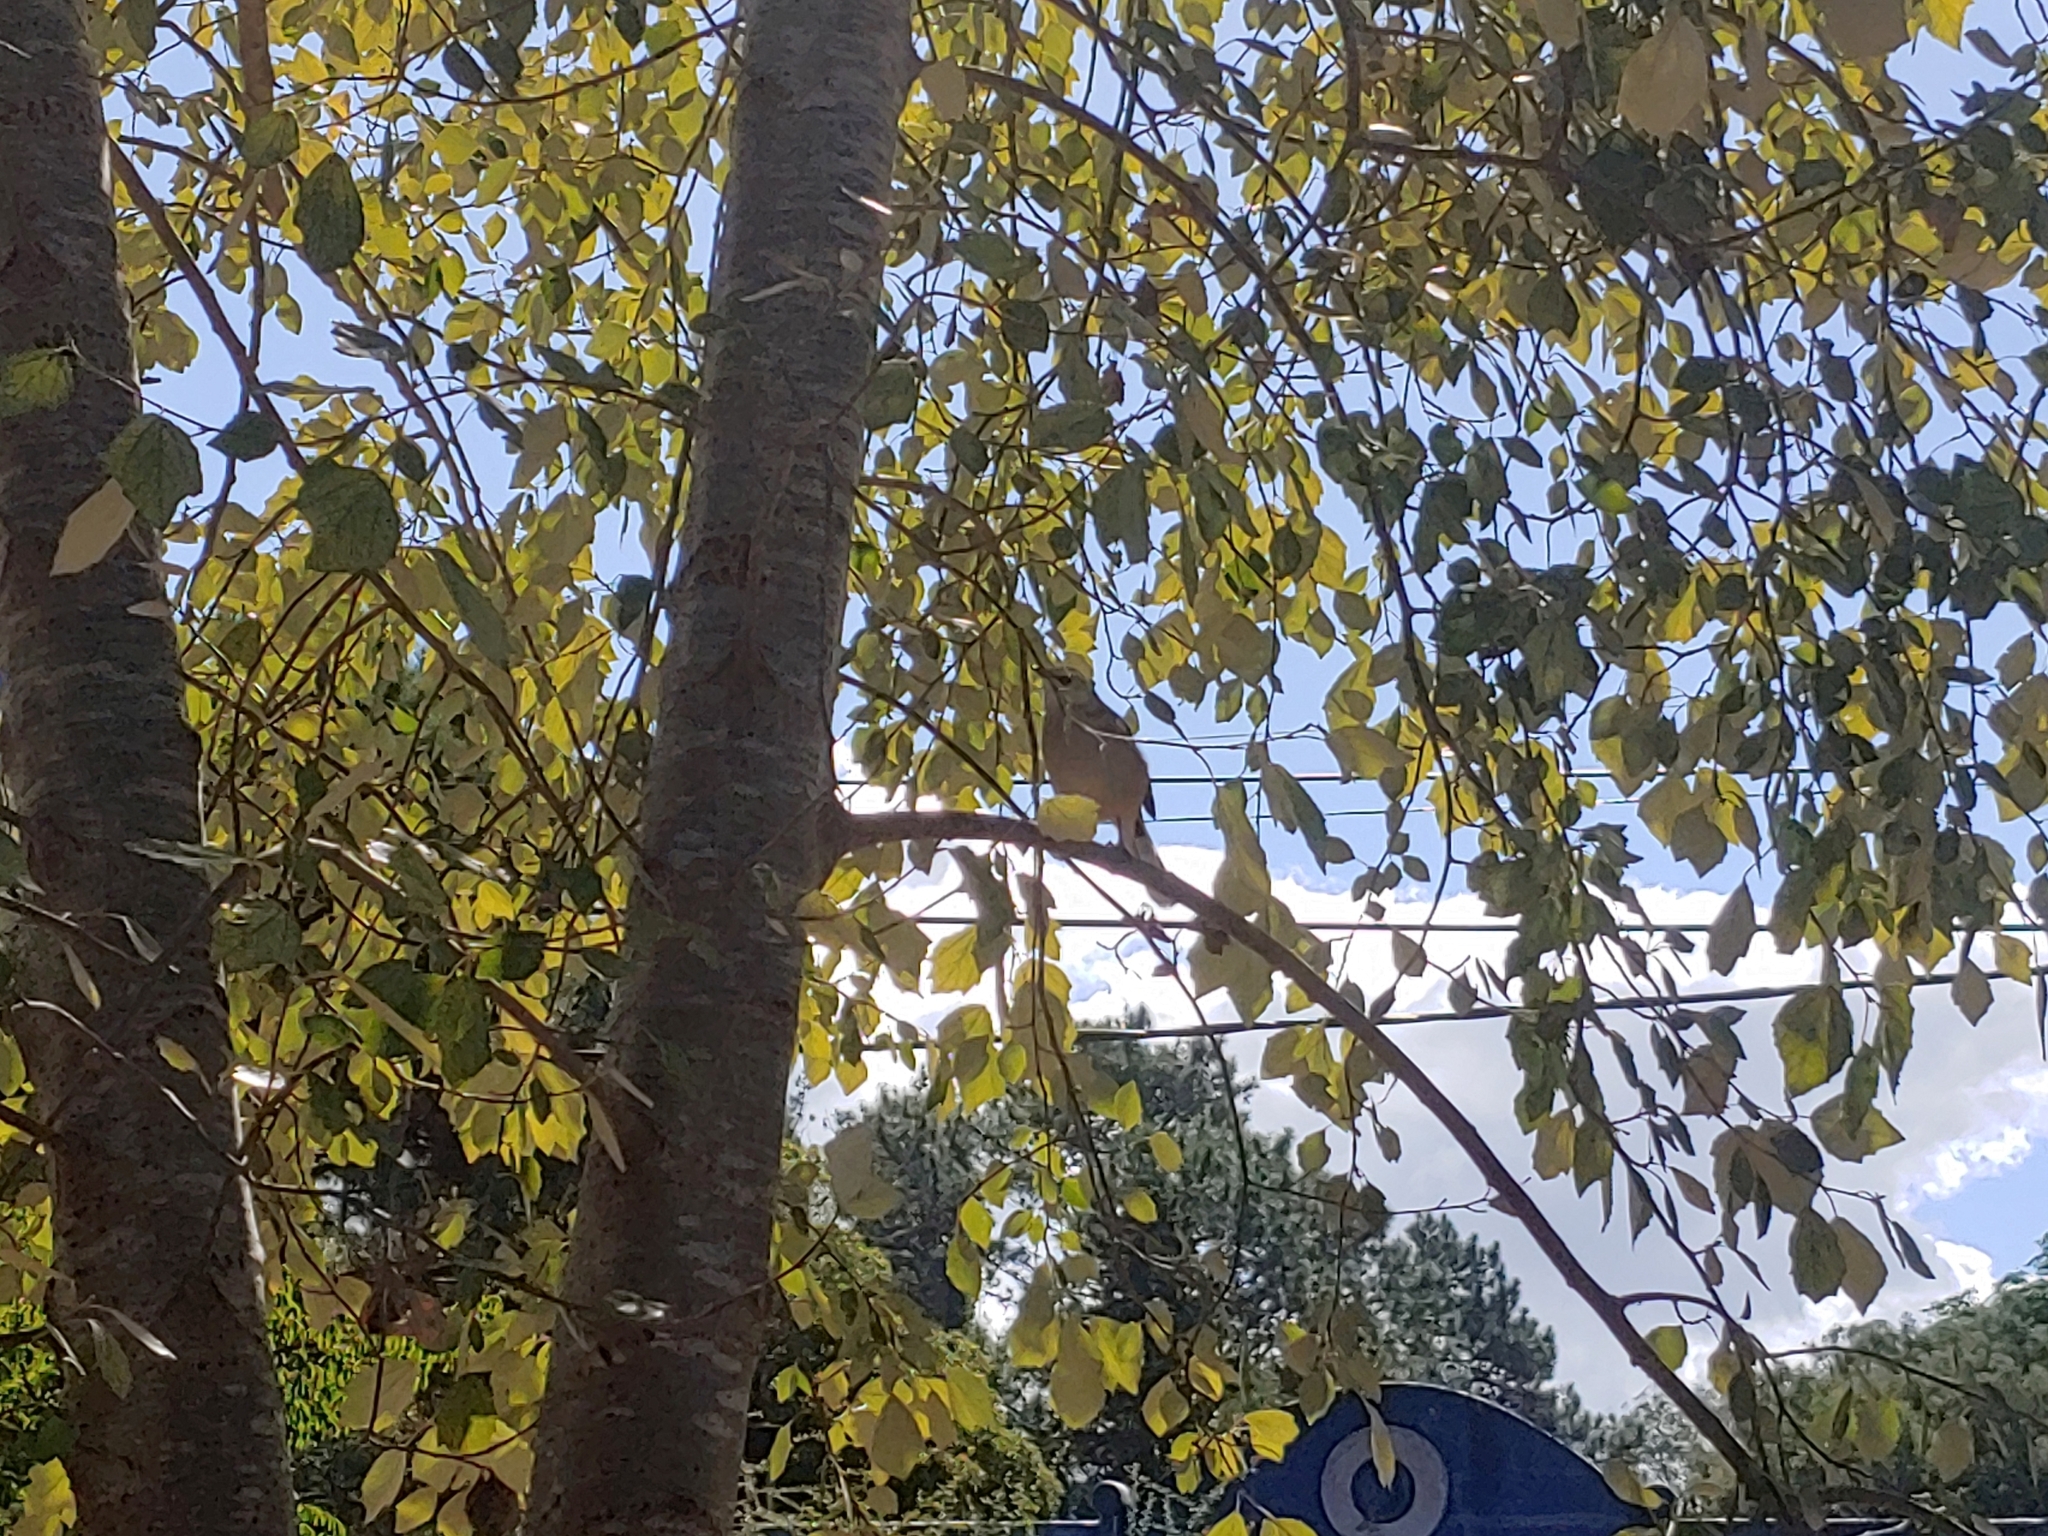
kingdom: Animalia
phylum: Chordata
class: Aves
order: Passeriformes
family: Mimidae
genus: Mimus
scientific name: Mimus saturninus
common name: Chalk-browed mockingbird
